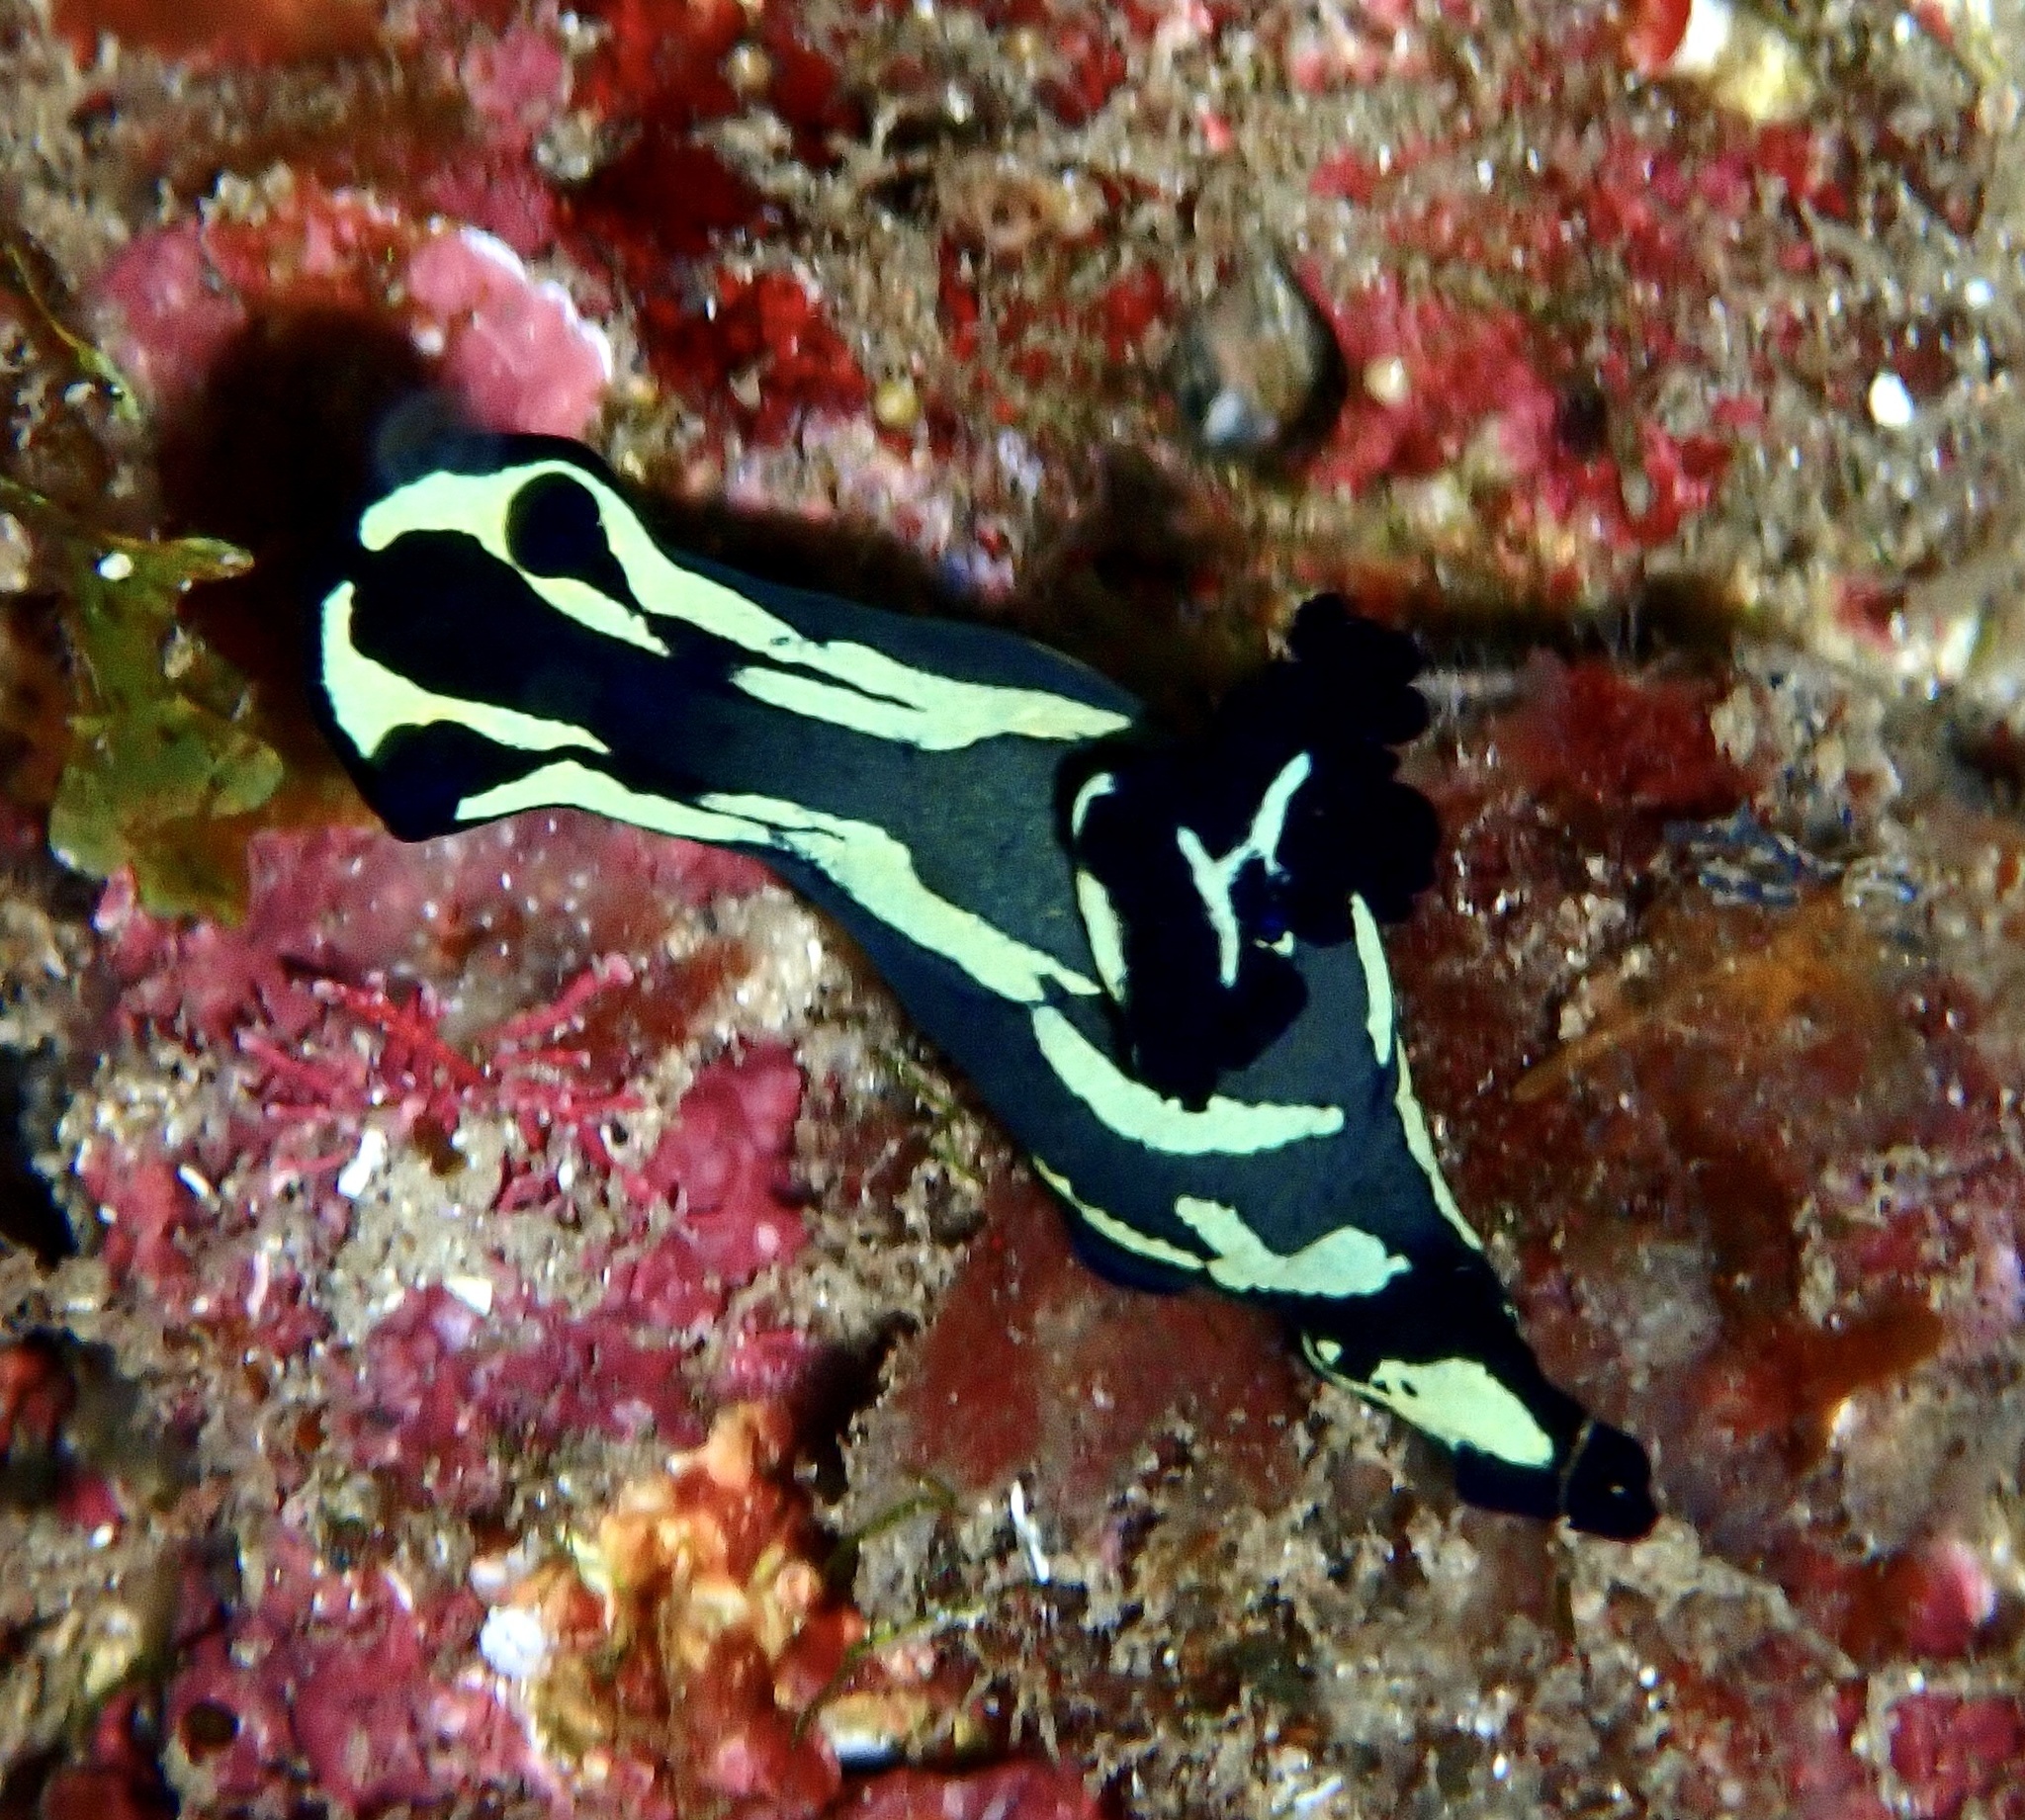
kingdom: Animalia
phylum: Mollusca
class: Gastropoda
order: Nudibranchia
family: Polyceridae
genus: Tambja
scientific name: Tambja fantasmalis
